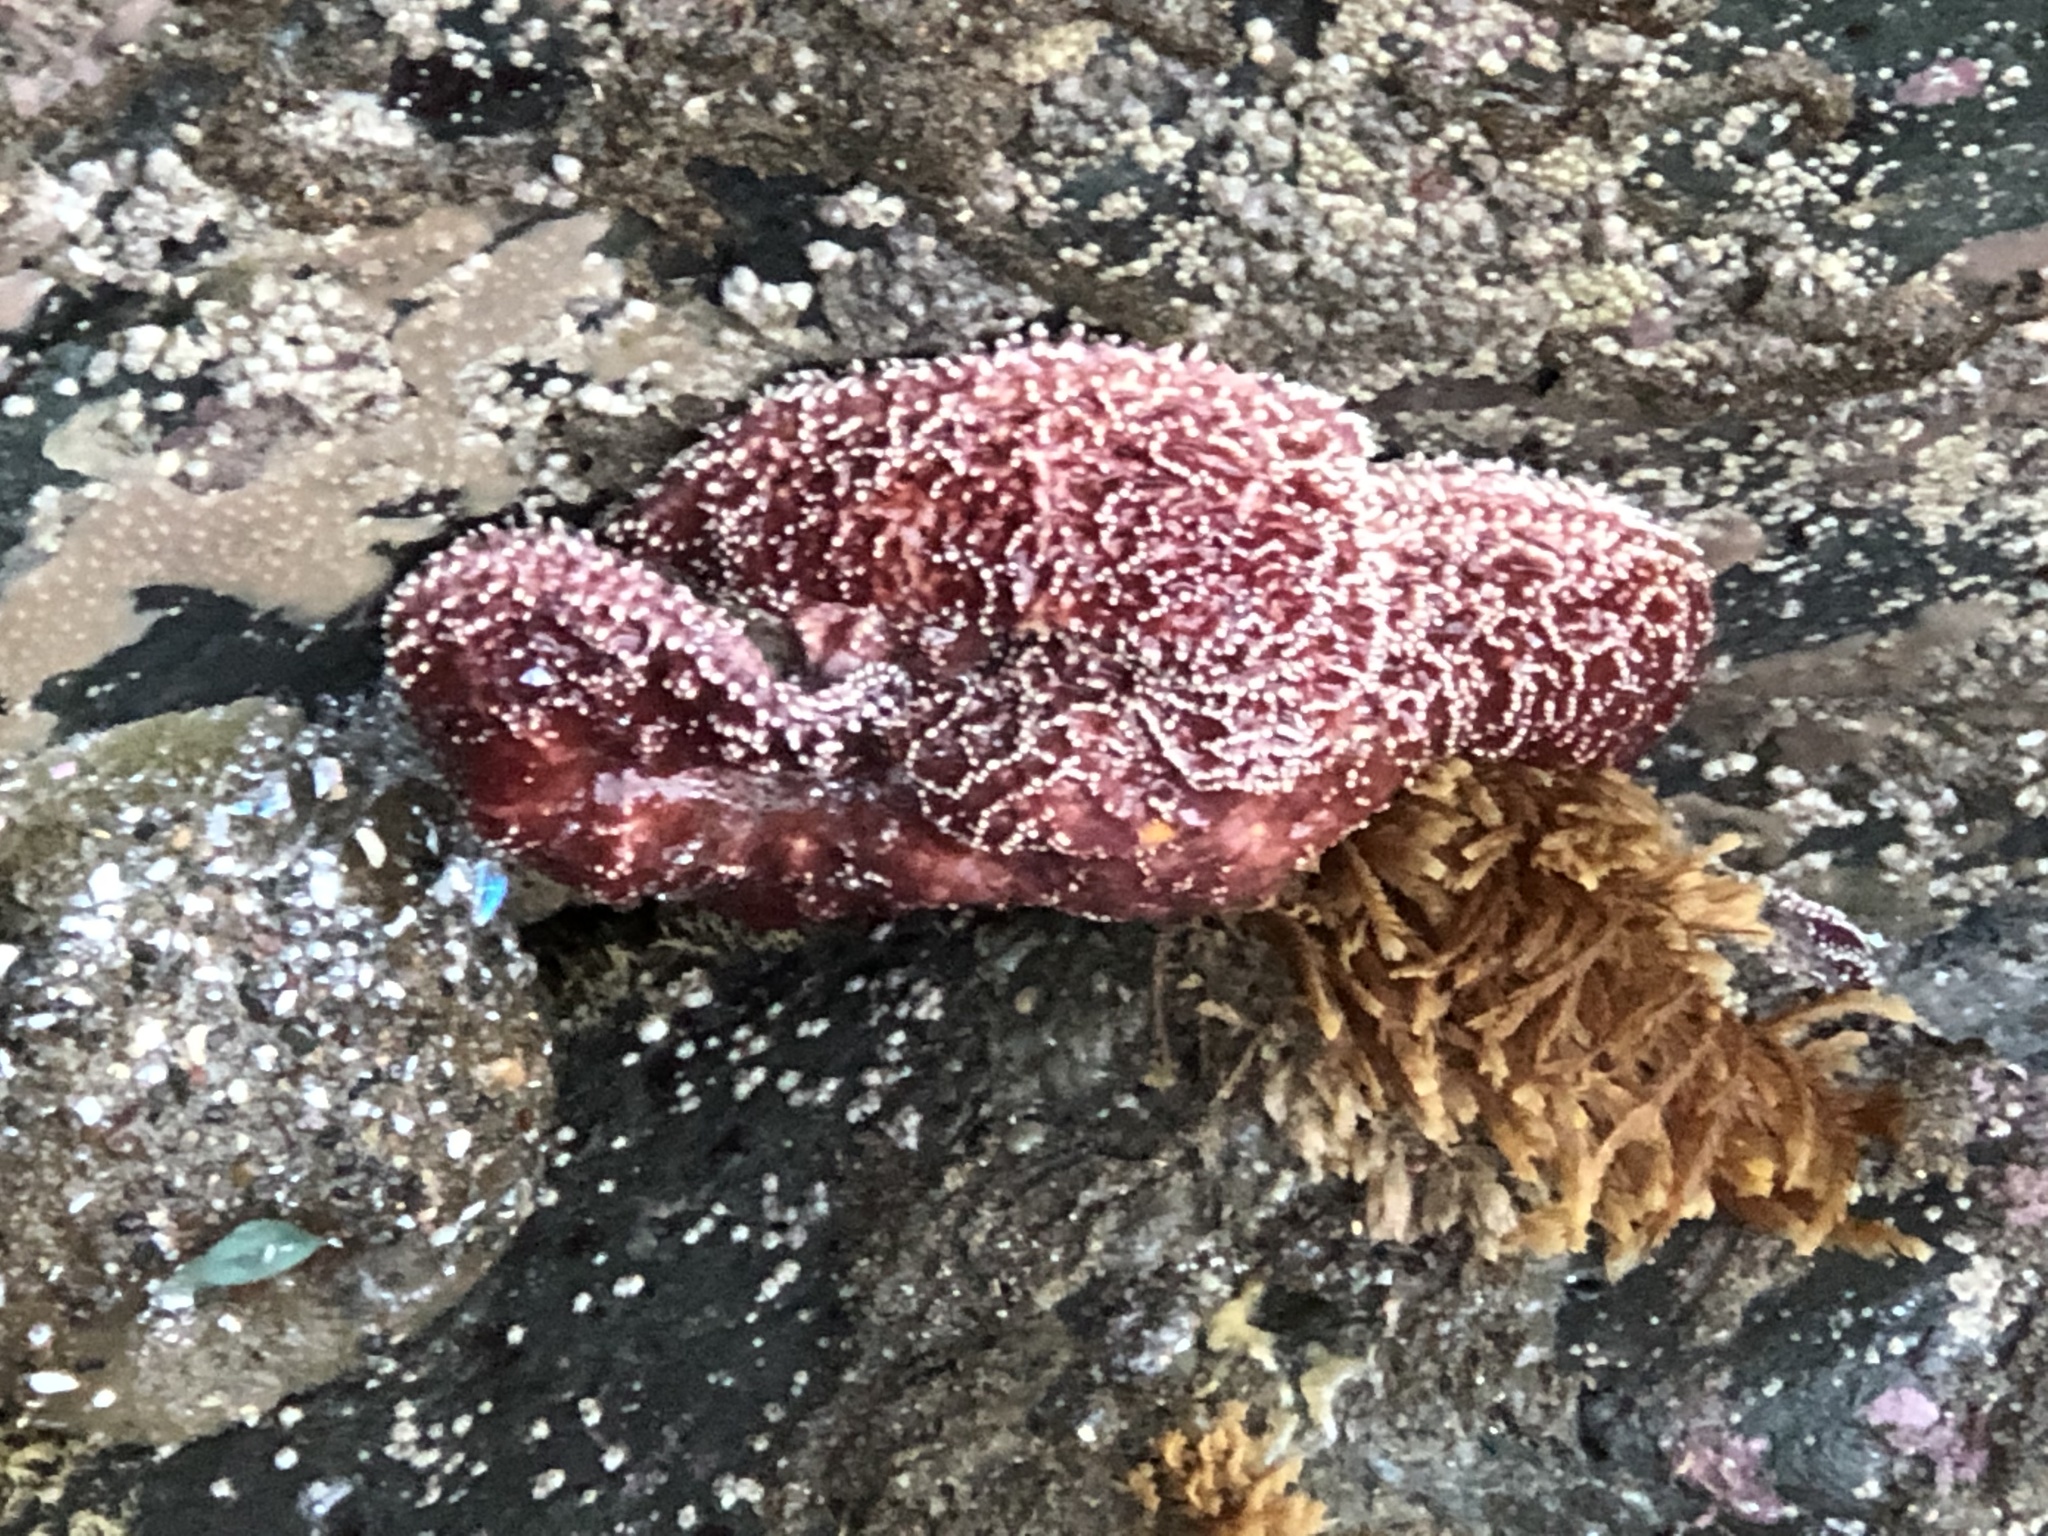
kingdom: Animalia
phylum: Echinodermata
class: Asteroidea
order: Forcipulatida
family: Asteriidae
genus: Pisaster
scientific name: Pisaster ochraceus
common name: Ochre stars
